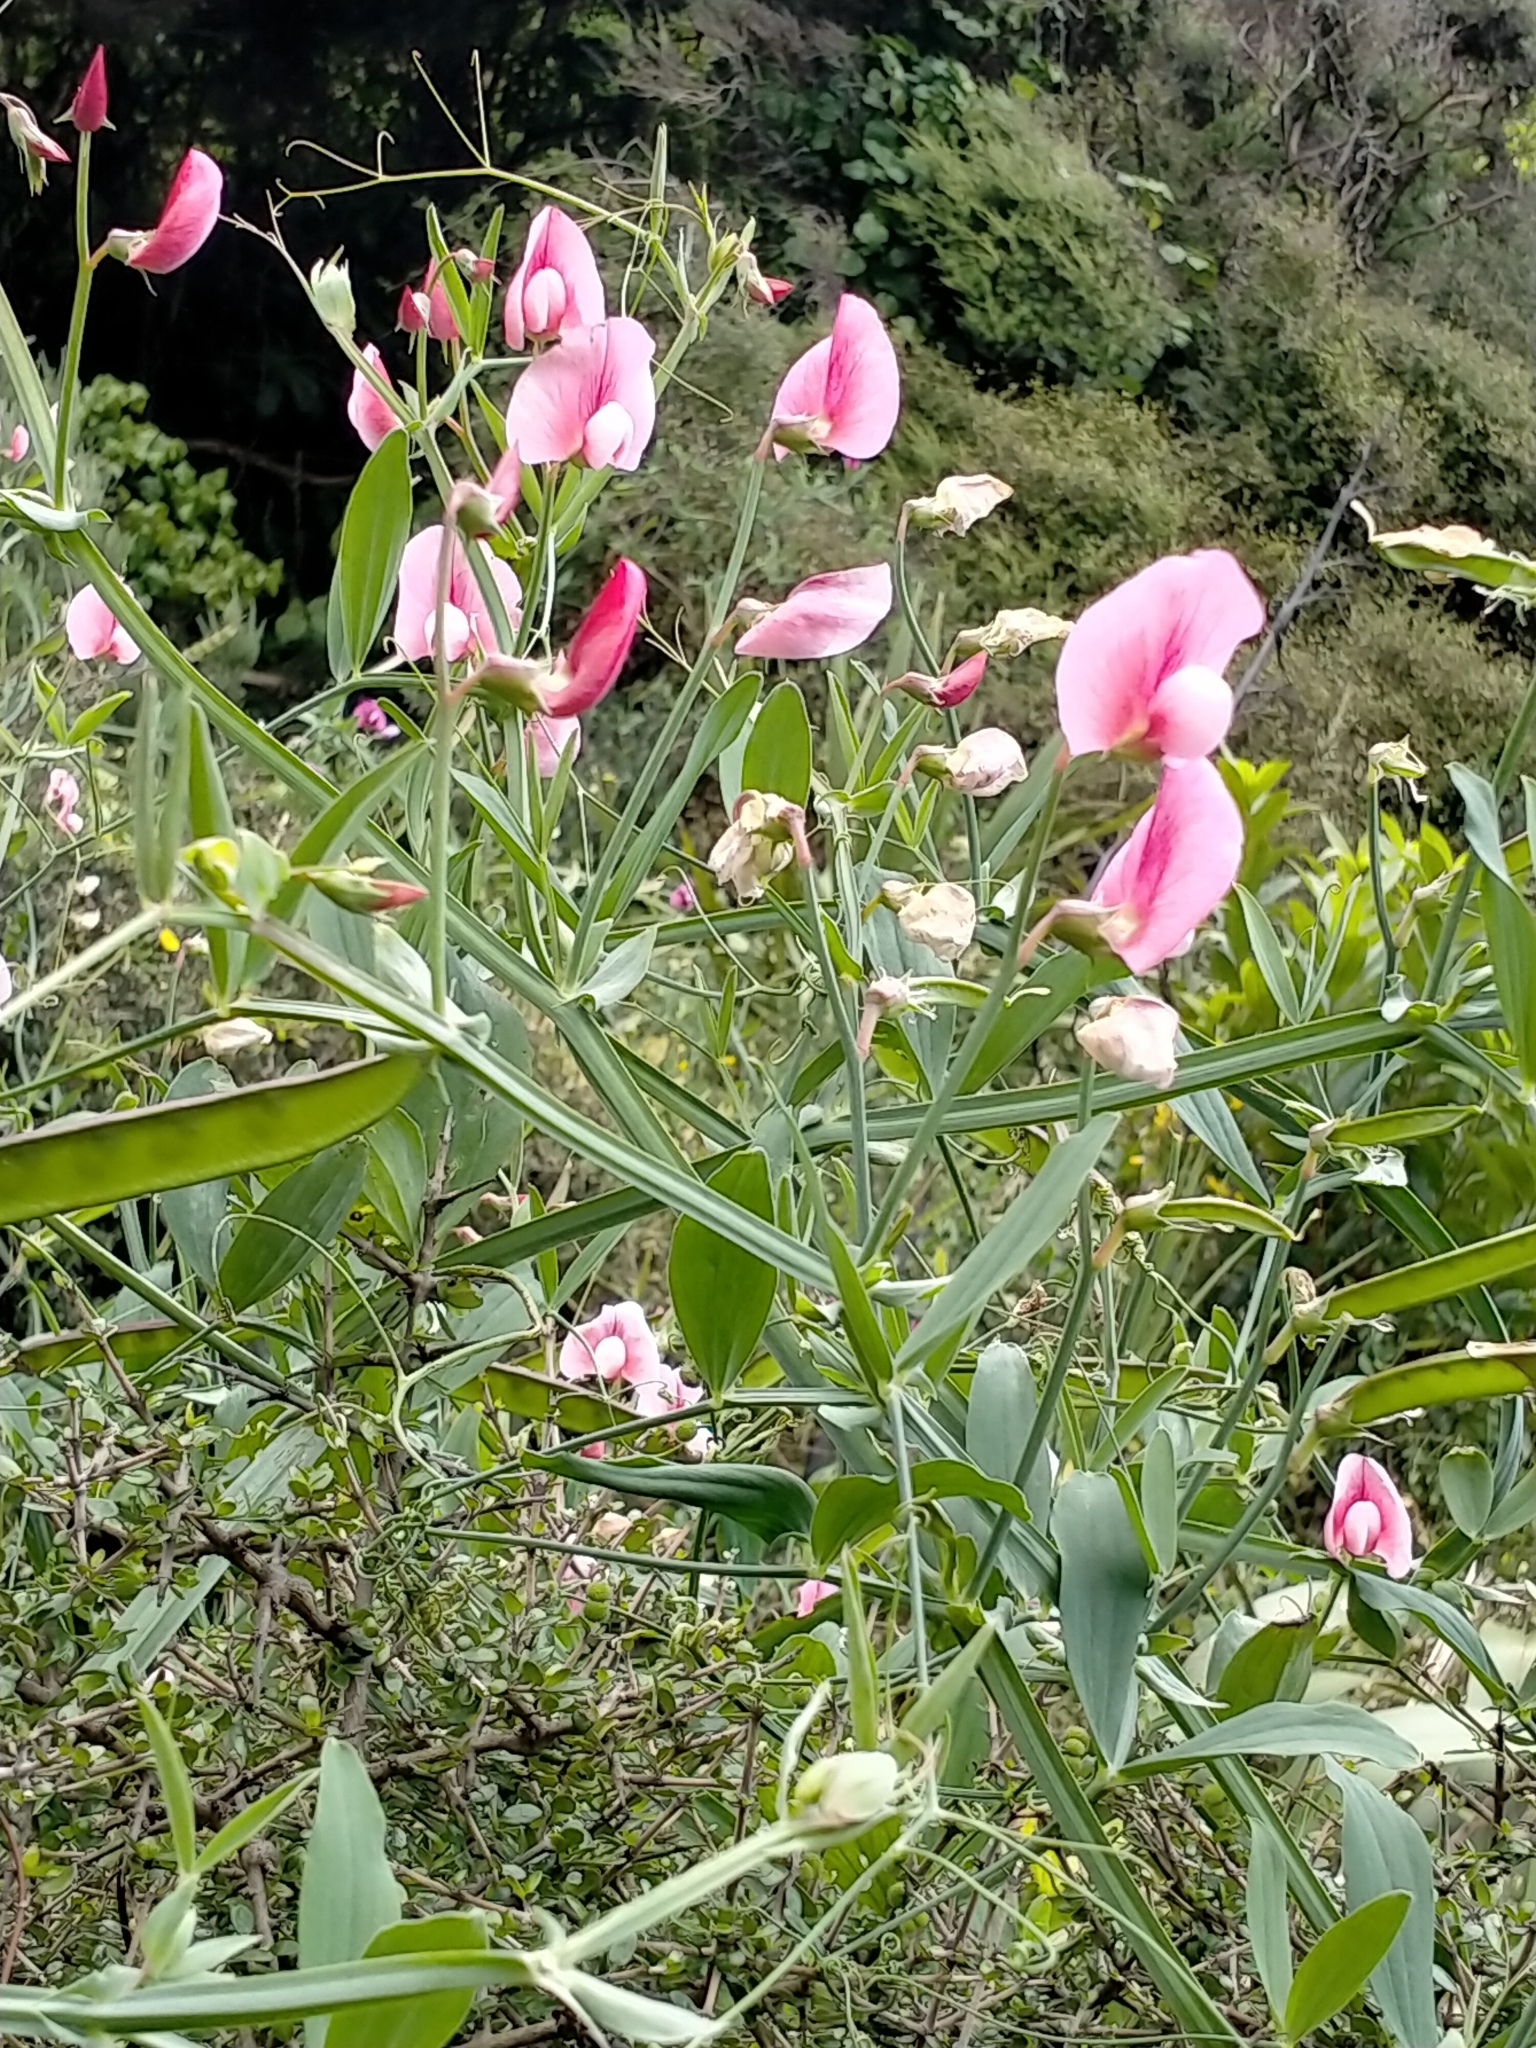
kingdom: Plantae
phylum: Tracheophyta
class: Magnoliopsida
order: Fabales
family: Fabaceae
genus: Lathyrus
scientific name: Lathyrus tingitanus
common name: Tangier pea
